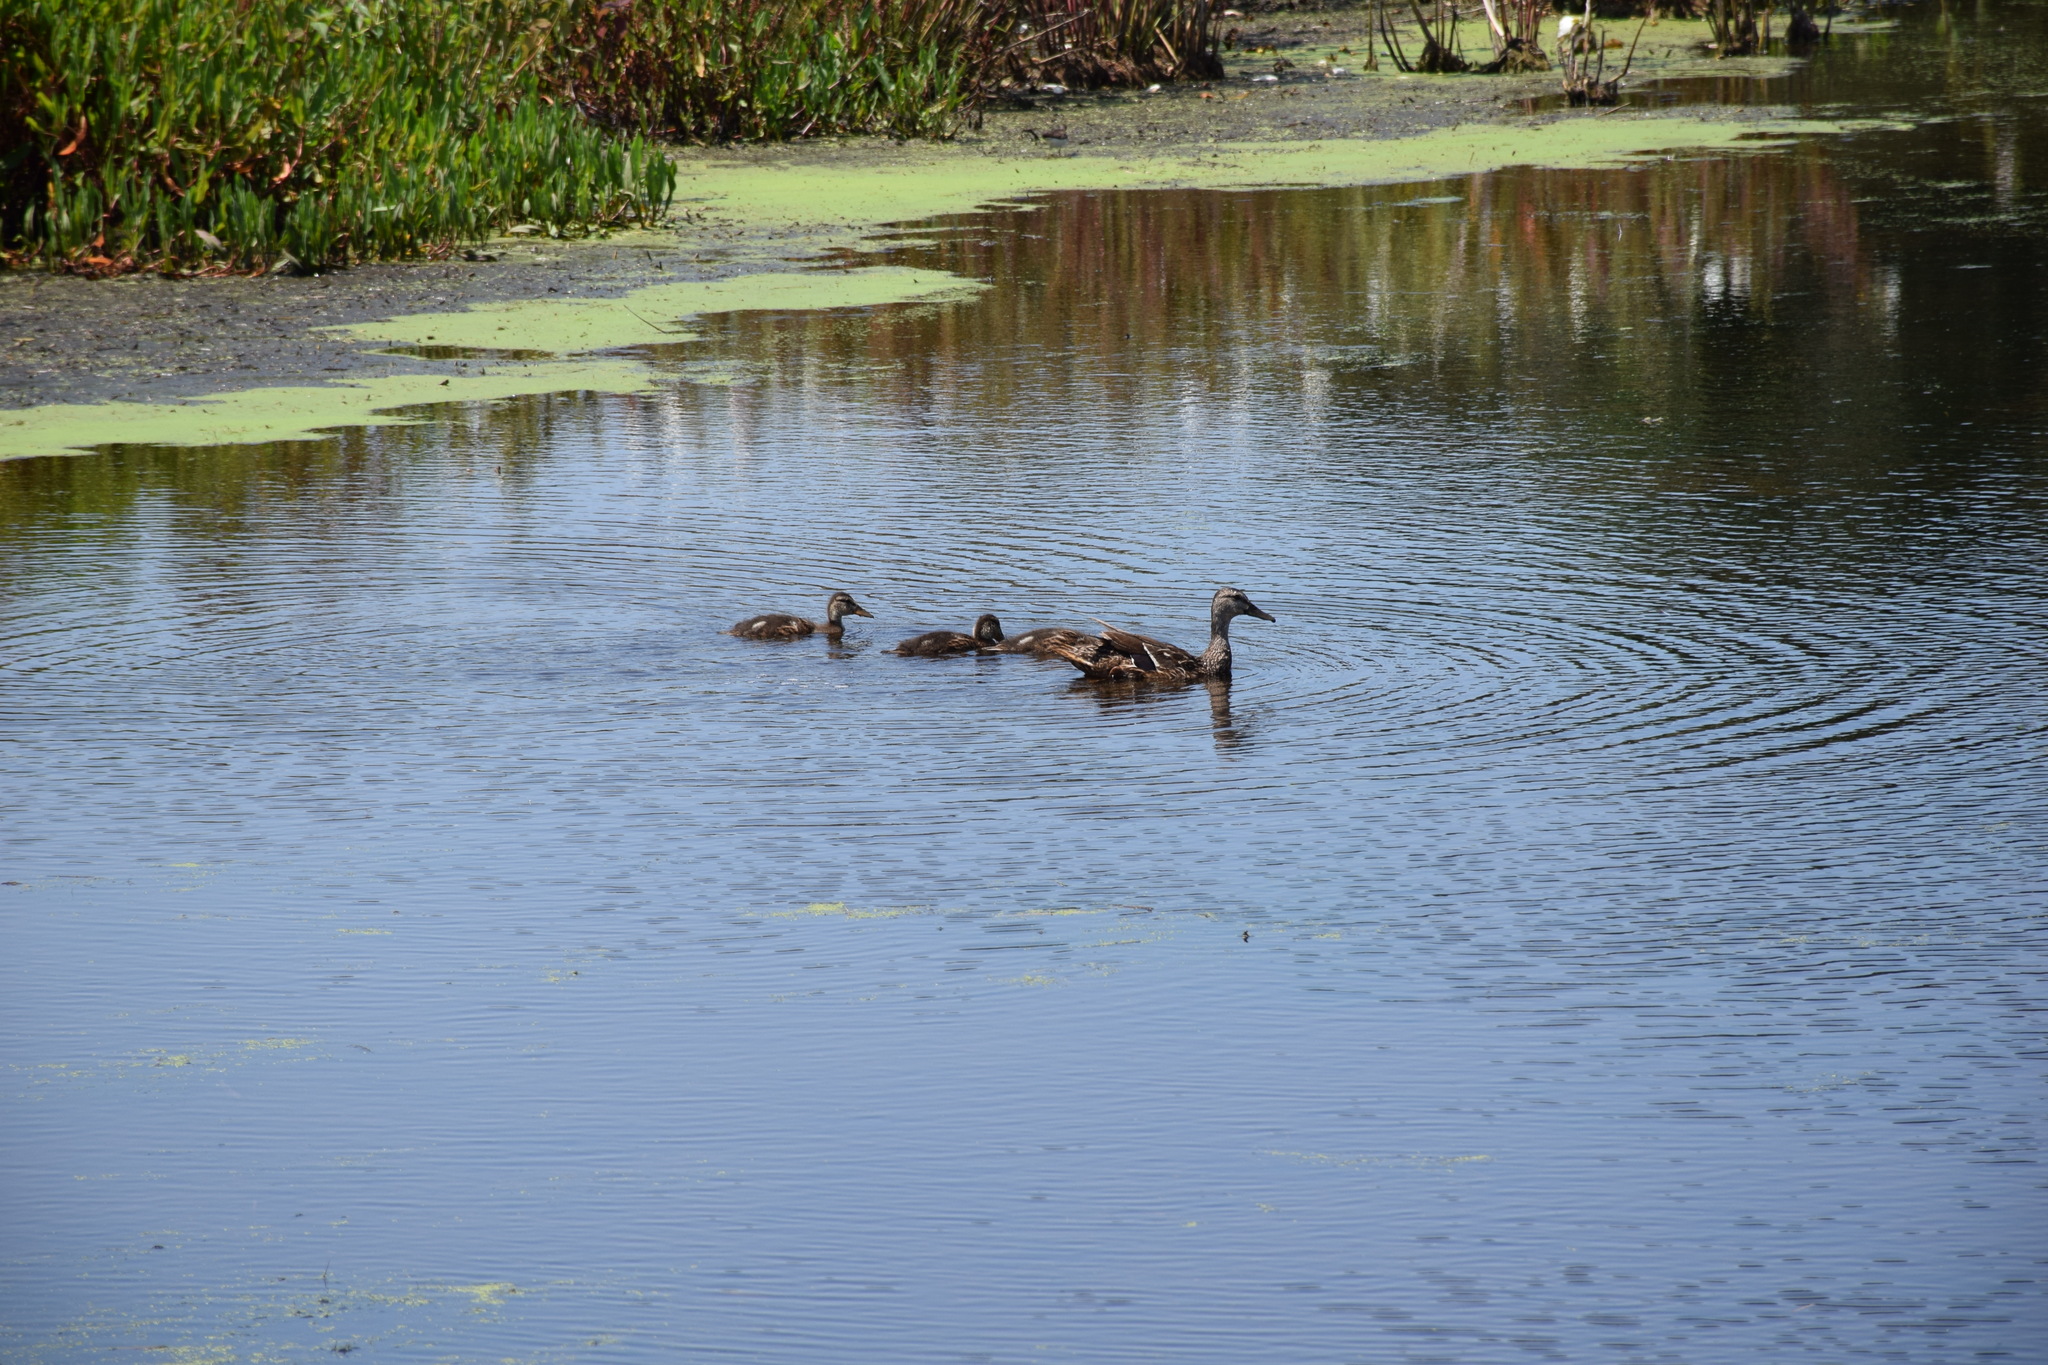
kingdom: Animalia
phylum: Chordata
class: Aves
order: Anseriformes
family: Anatidae
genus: Anas
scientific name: Anas platyrhynchos
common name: Mallard
